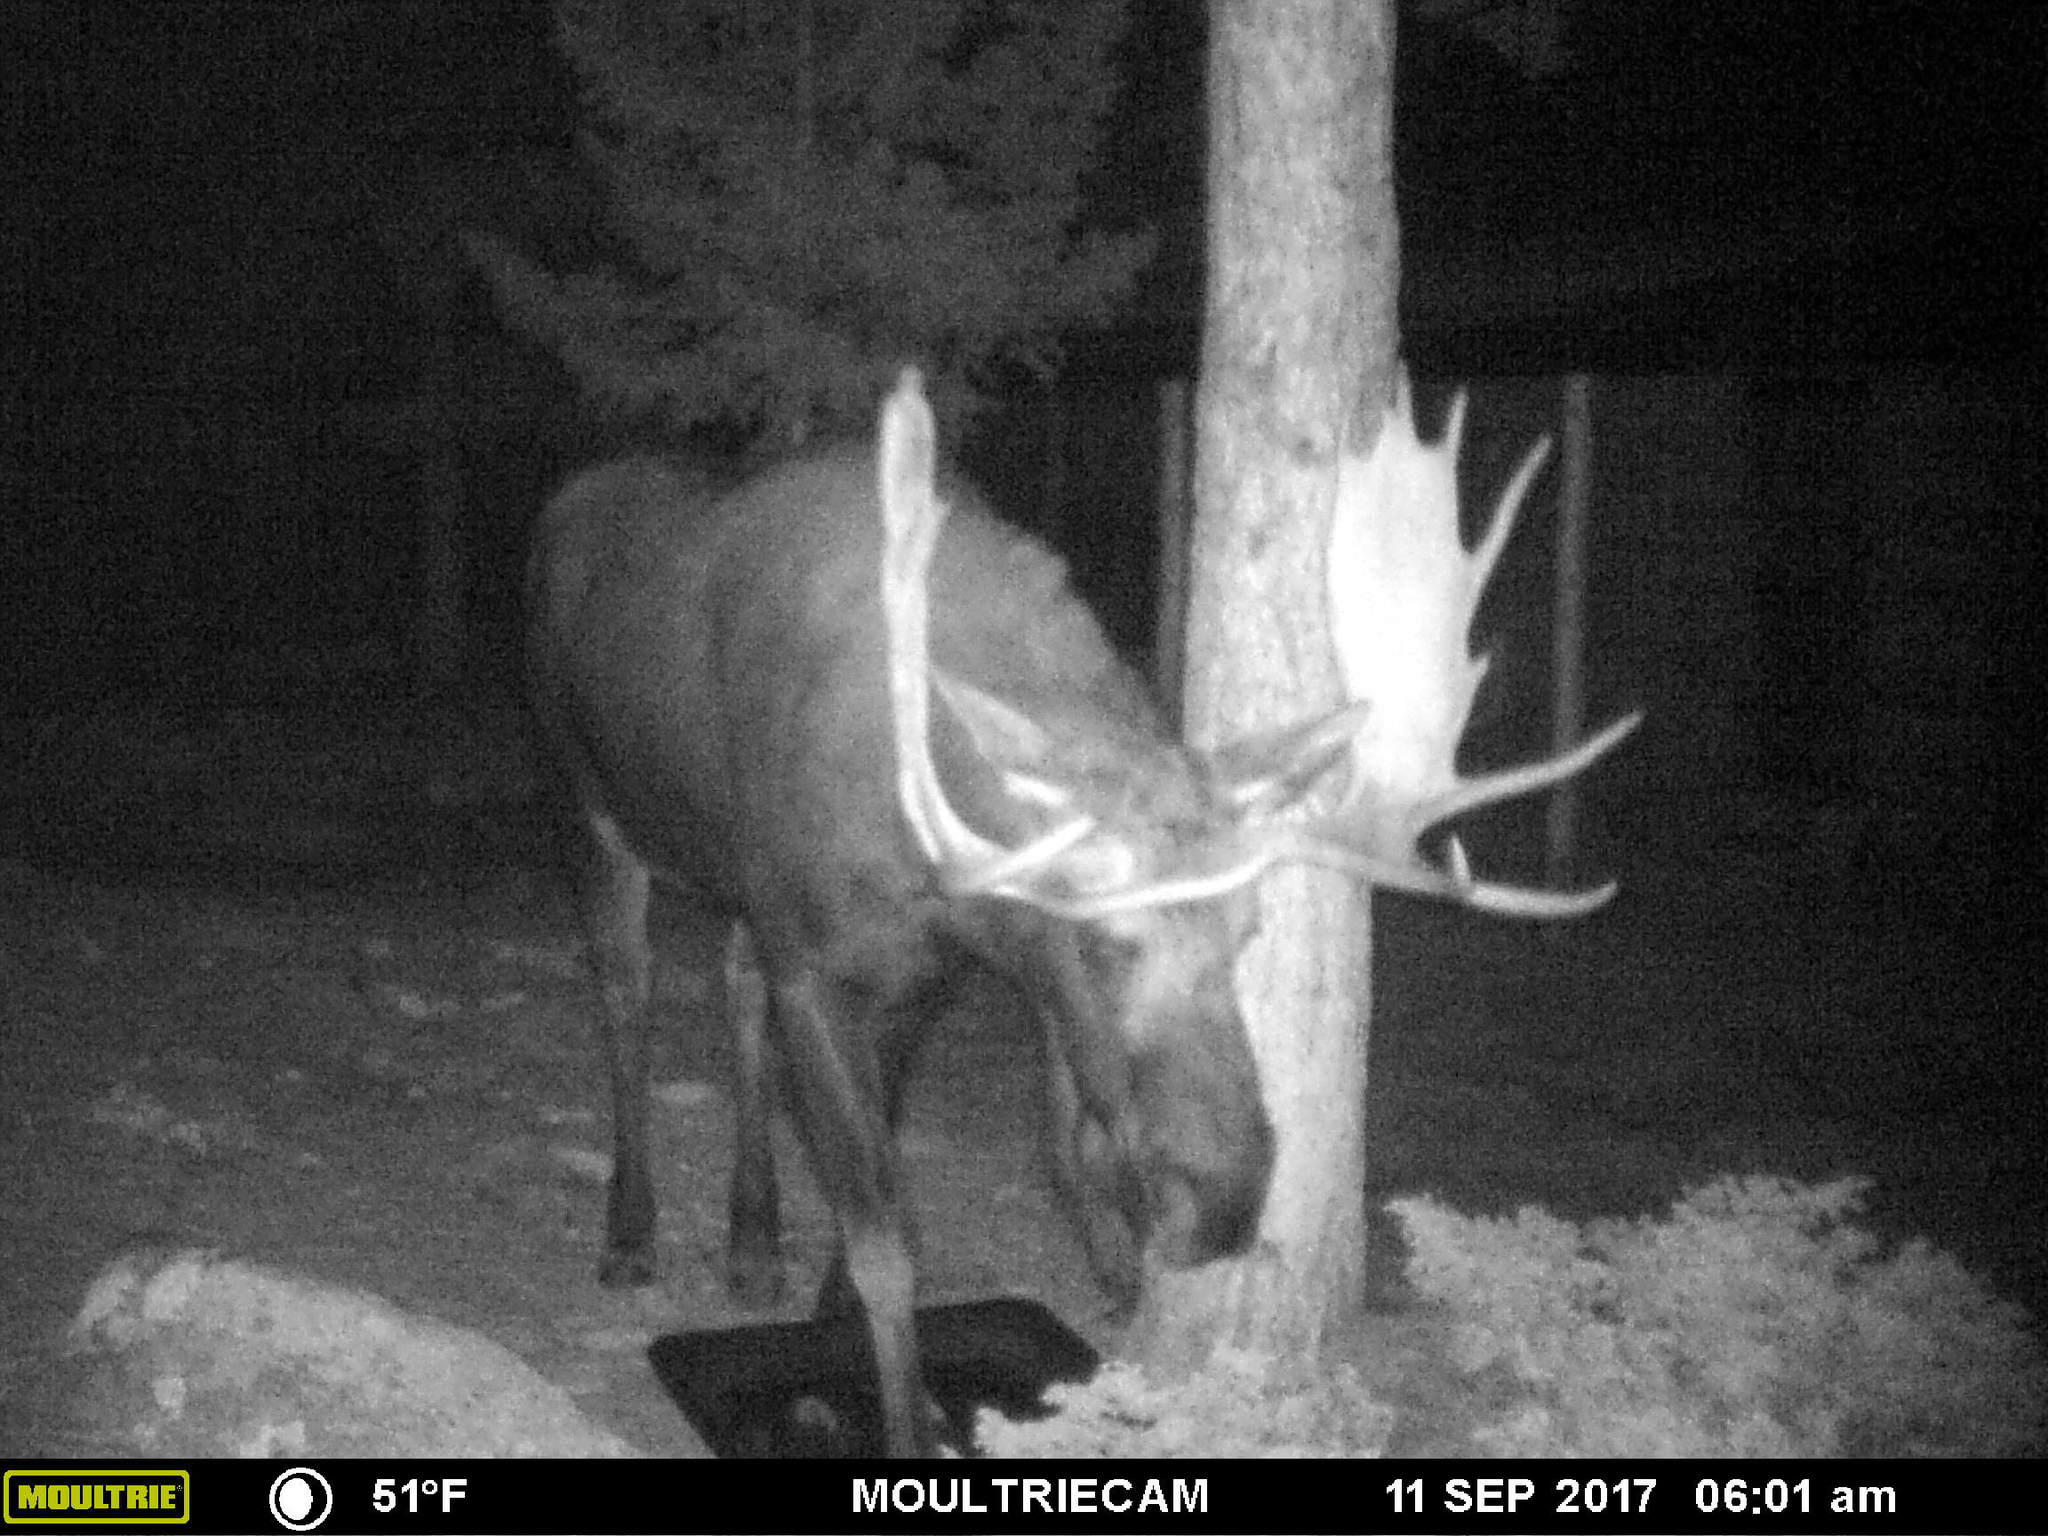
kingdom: Animalia
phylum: Chordata
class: Mammalia
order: Artiodactyla
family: Cervidae
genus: Alces
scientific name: Alces alces
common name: Moose
